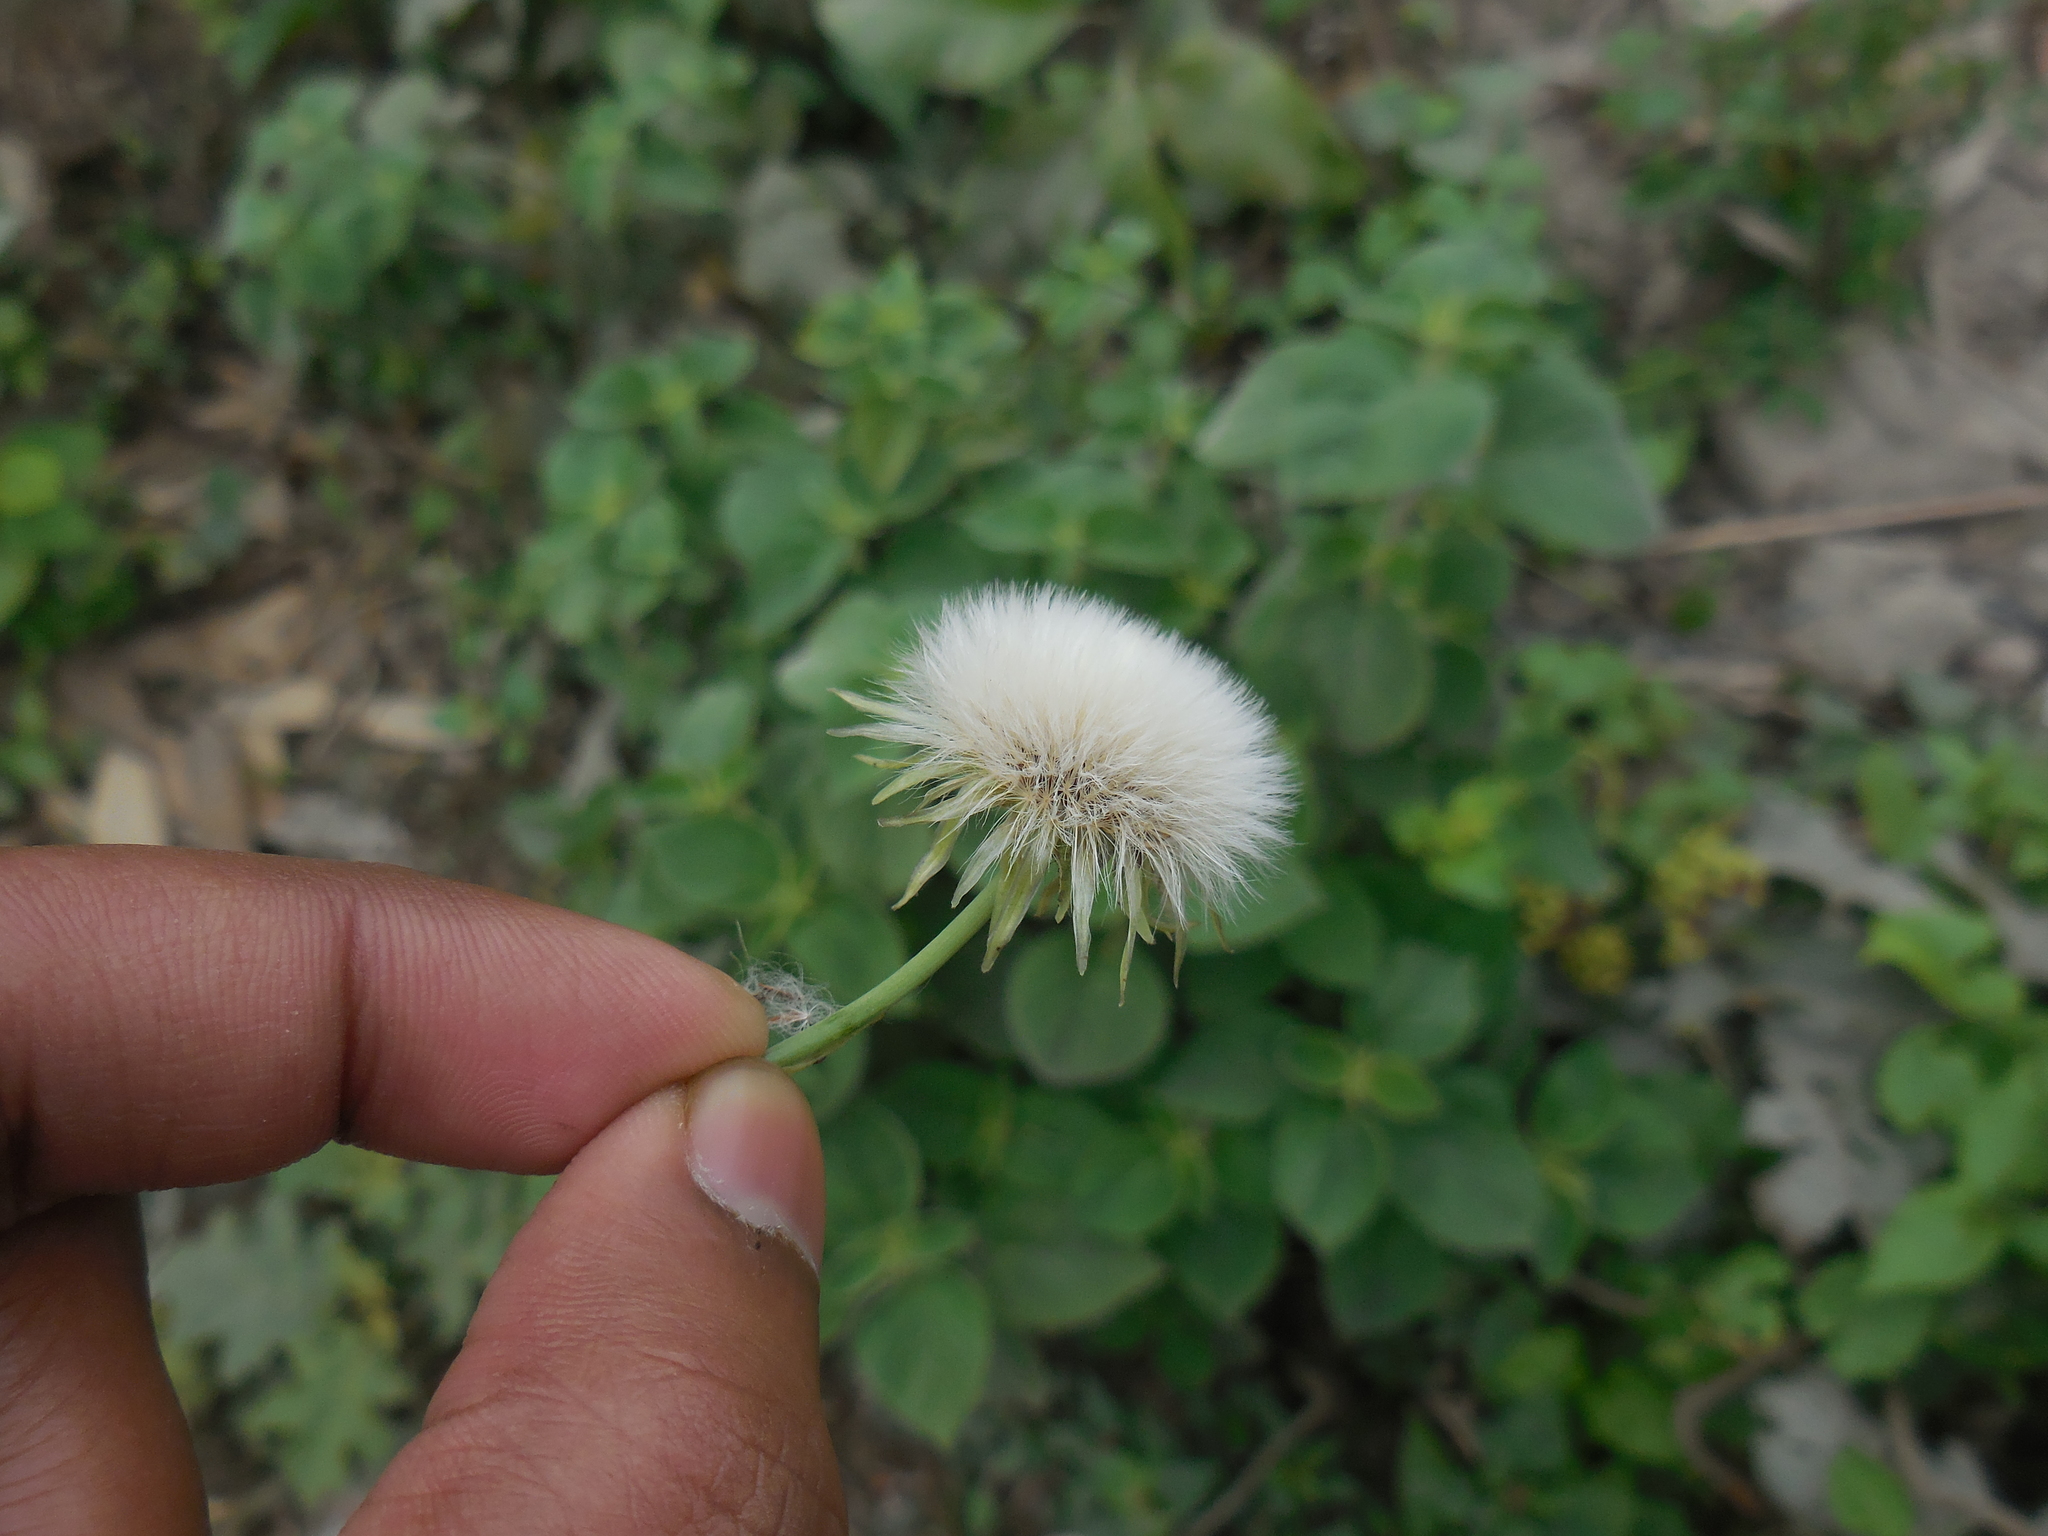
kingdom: Plantae
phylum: Tracheophyta
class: Magnoliopsida
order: Asterales
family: Asteraceae
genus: Taraxacum
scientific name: Taraxacum officinale
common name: Common dandelion
